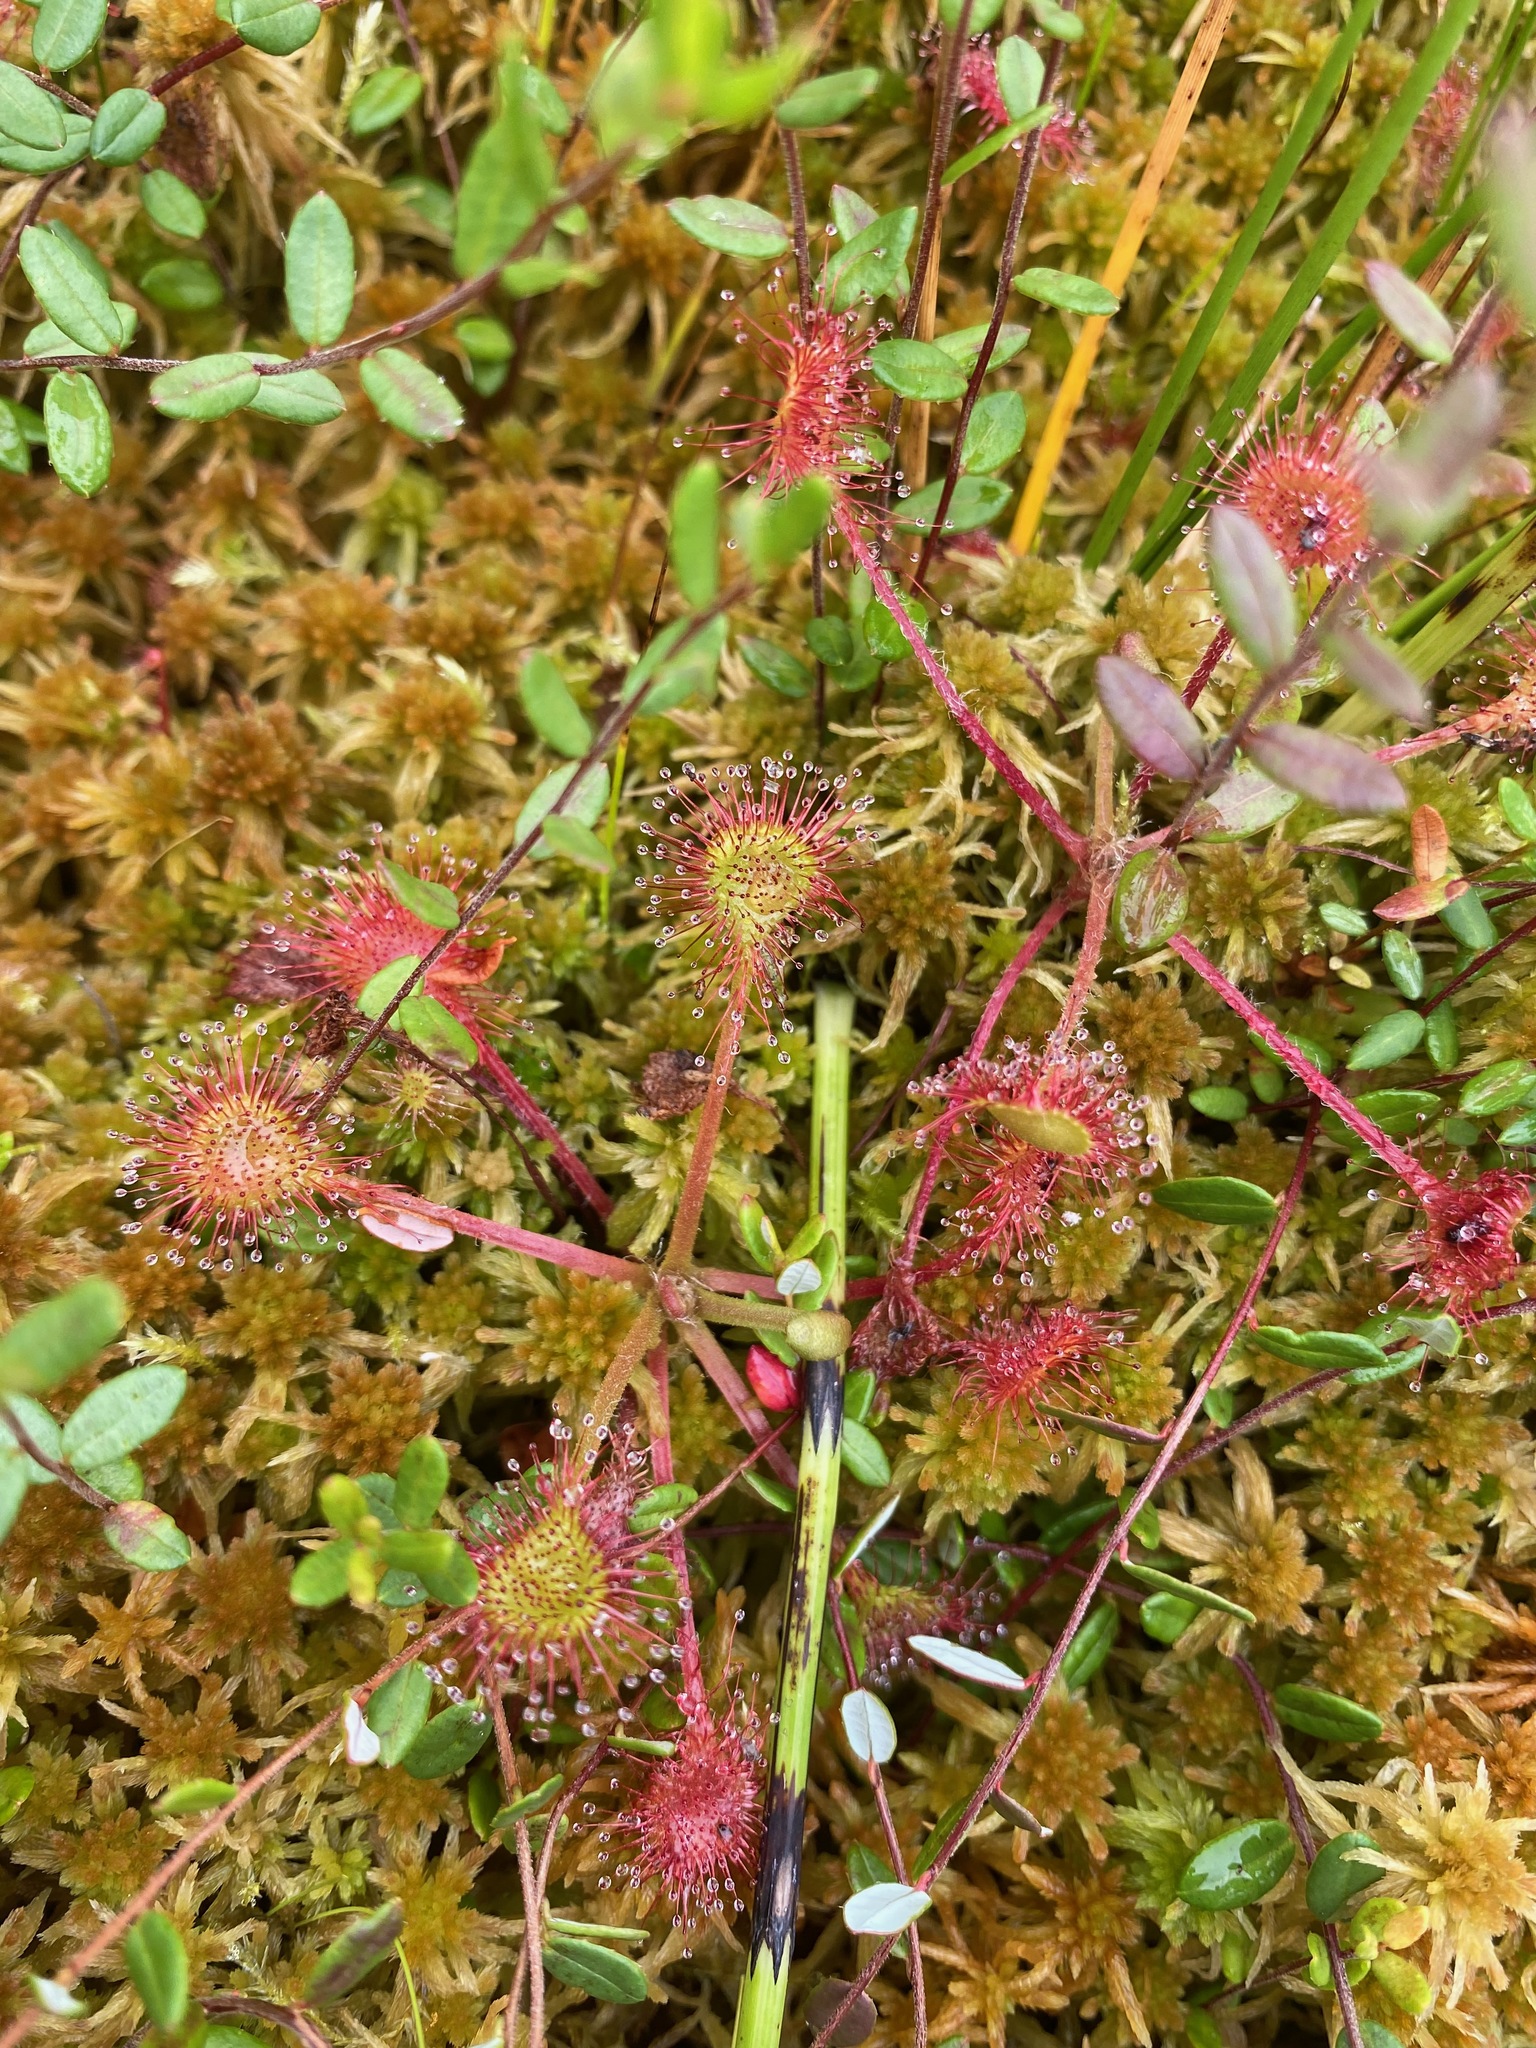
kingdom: Plantae
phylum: Tracheophyta
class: Magnoliopsida
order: Caryophyllales
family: Droseraceae
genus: Drosera
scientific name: Drosera rotundifolia
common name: Round-leaved sundew
